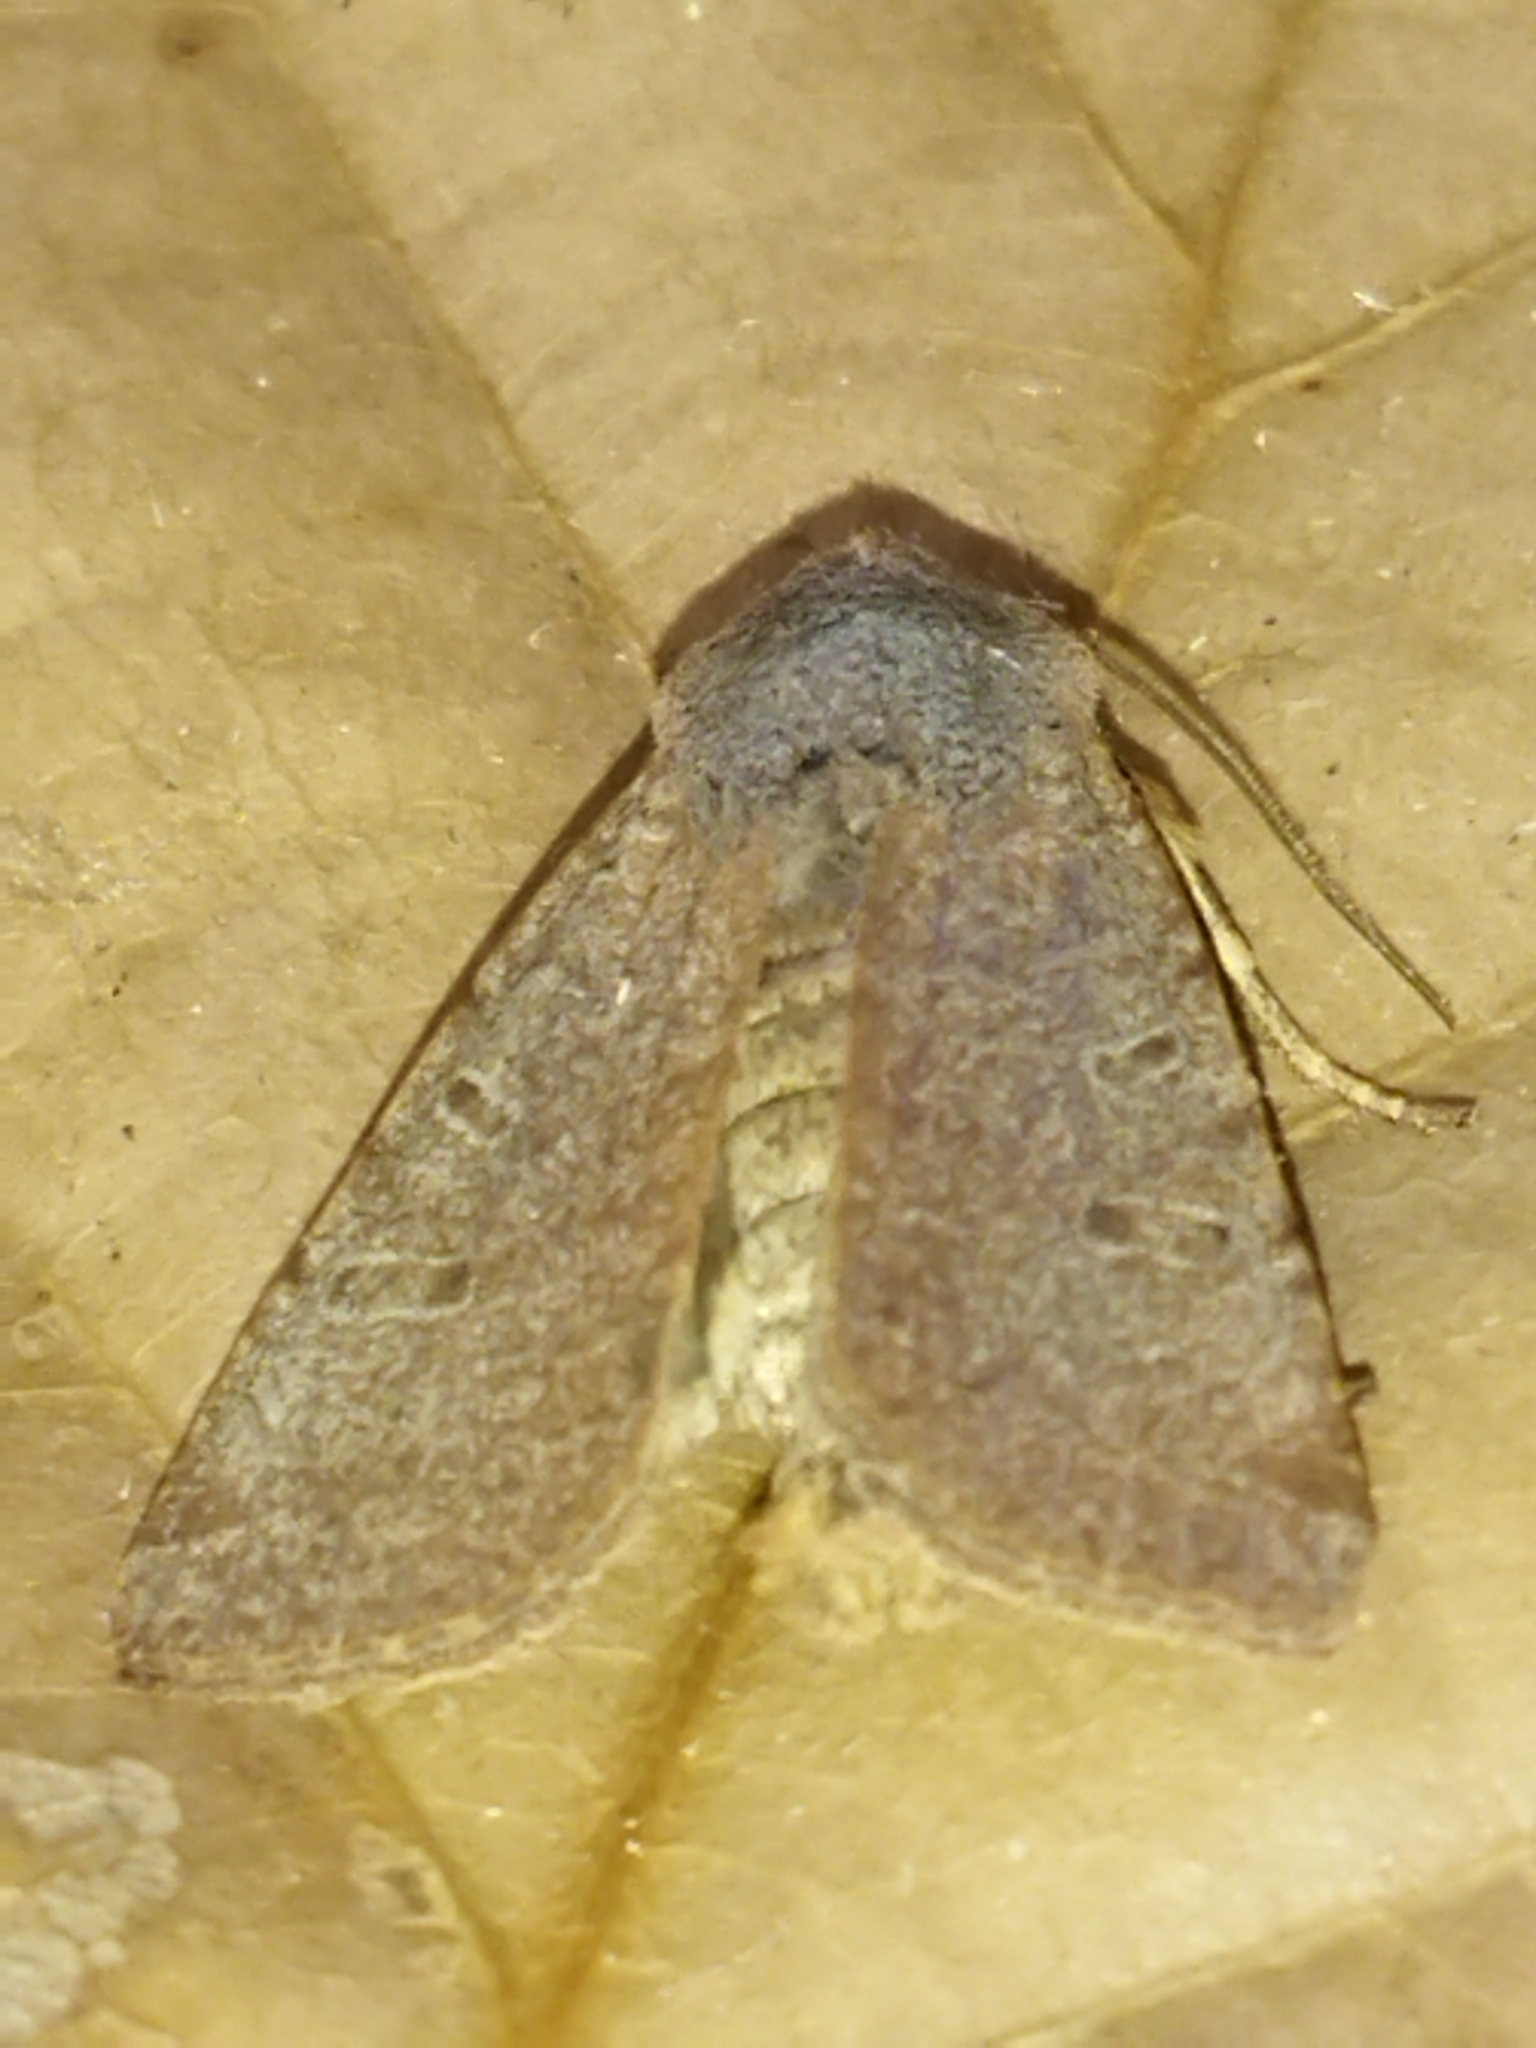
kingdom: Animalia
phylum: Arthropoda
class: Insecta
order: Lepidoptera
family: Noctuidae
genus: Agrochola
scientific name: Agrochola lychnidis
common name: Beaded chestnut
